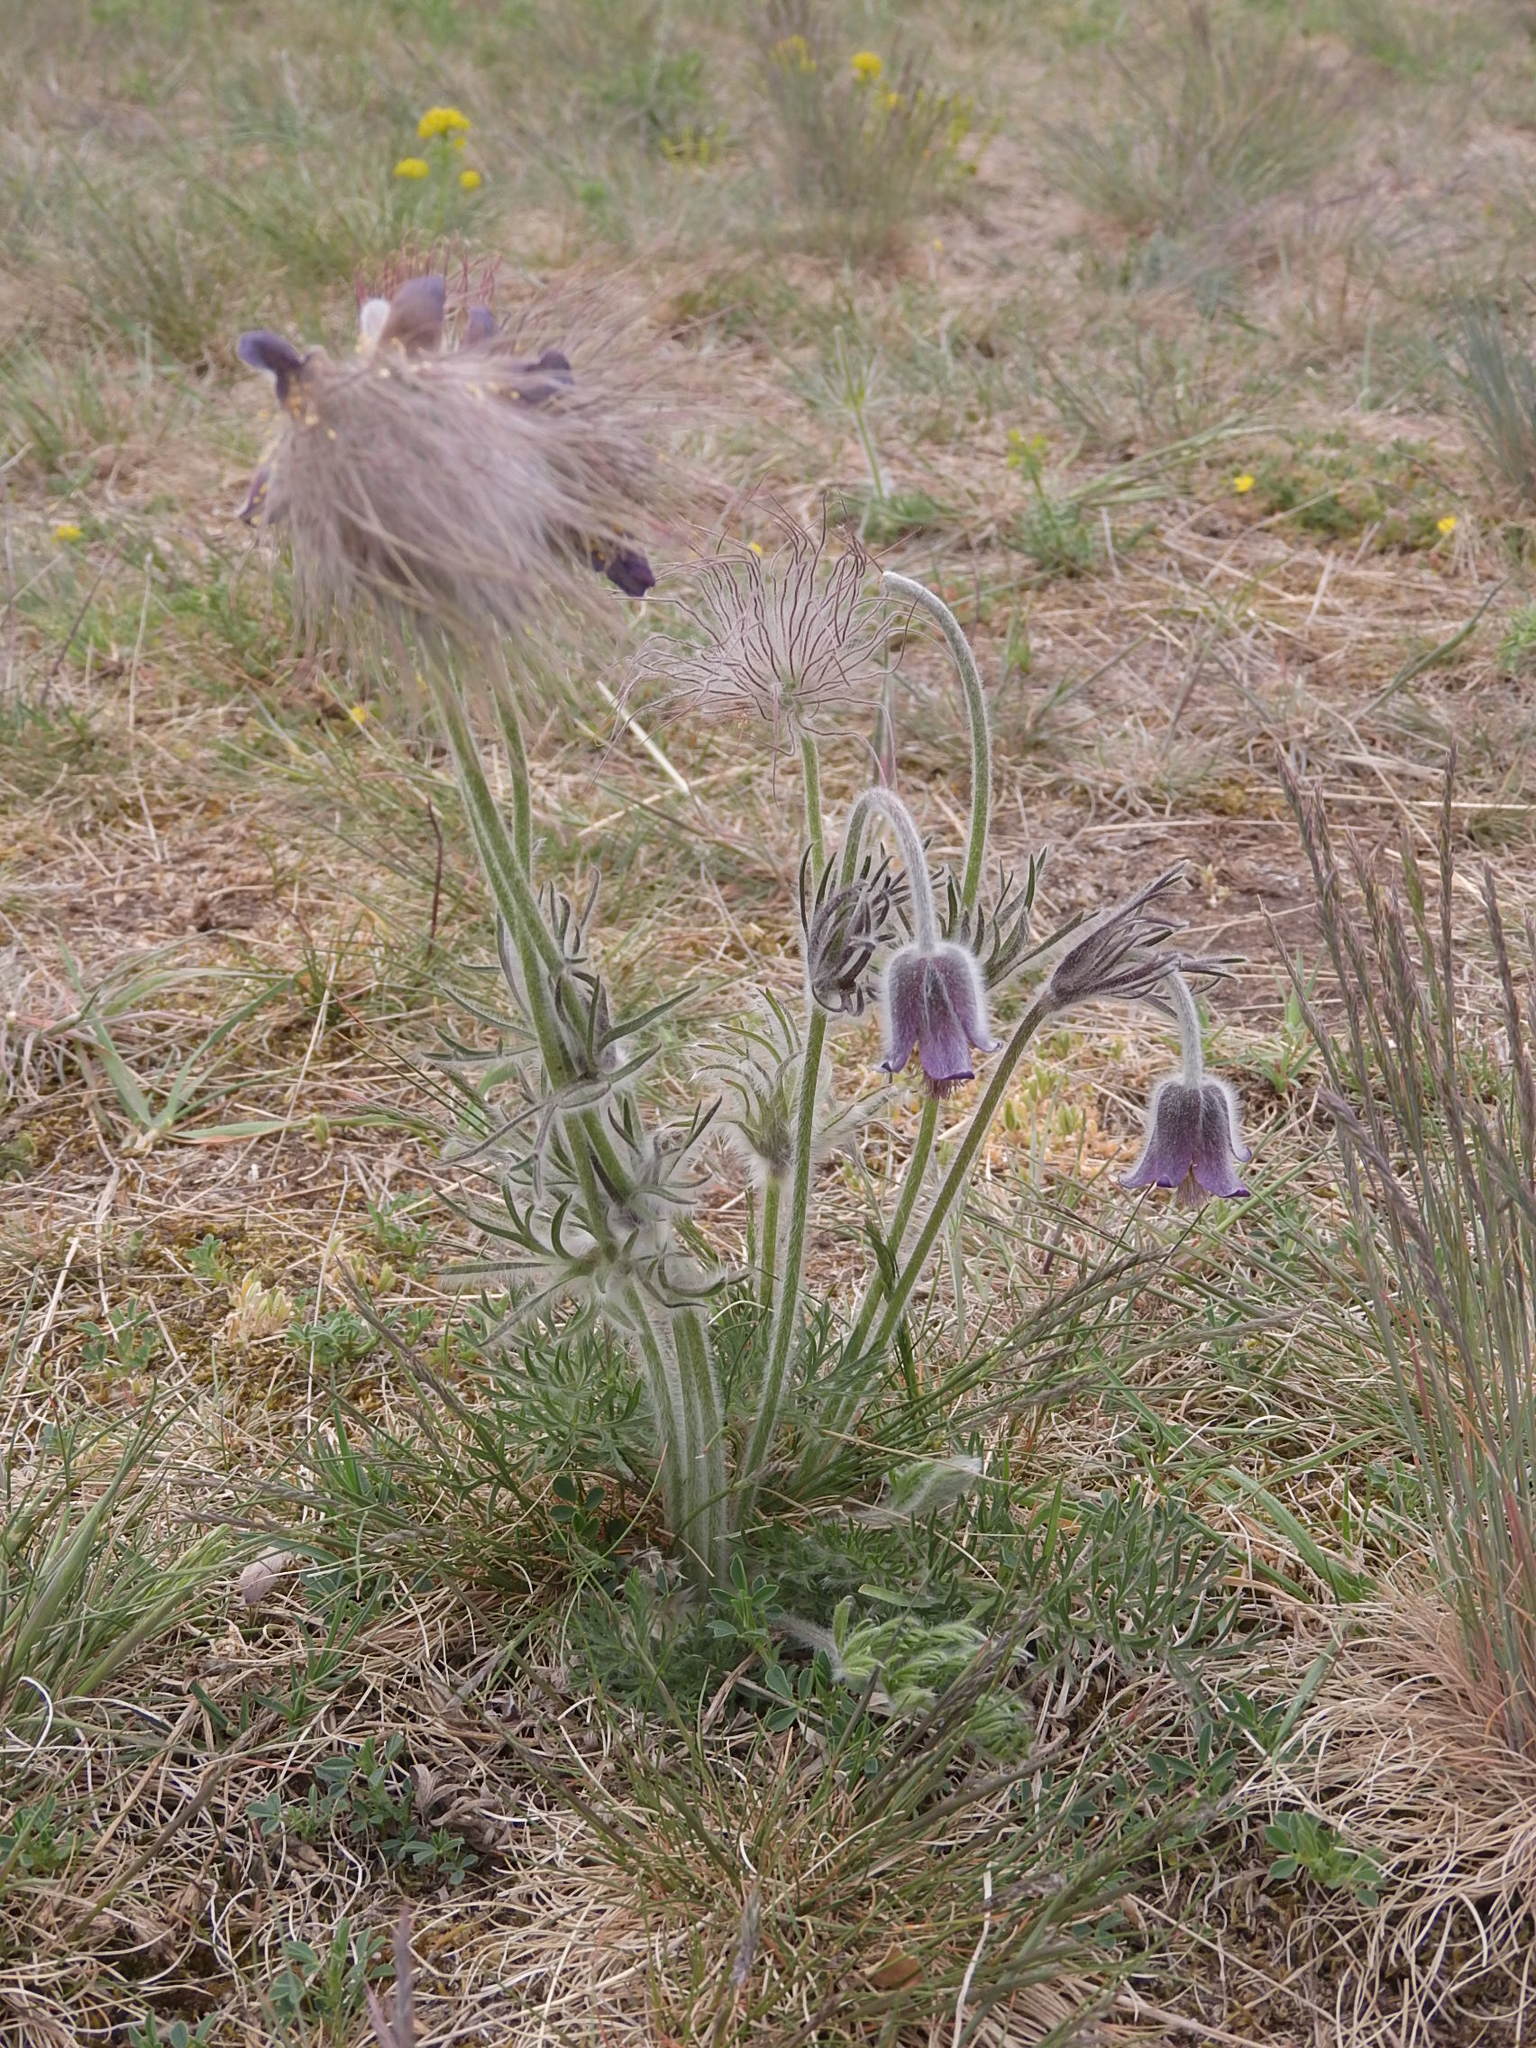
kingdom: Plantae
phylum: Tracheophyta
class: Magnoliopsida
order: Ranunculales
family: Ranunculaceae
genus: Pulsatilla
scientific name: Pulsatilla pratensis
